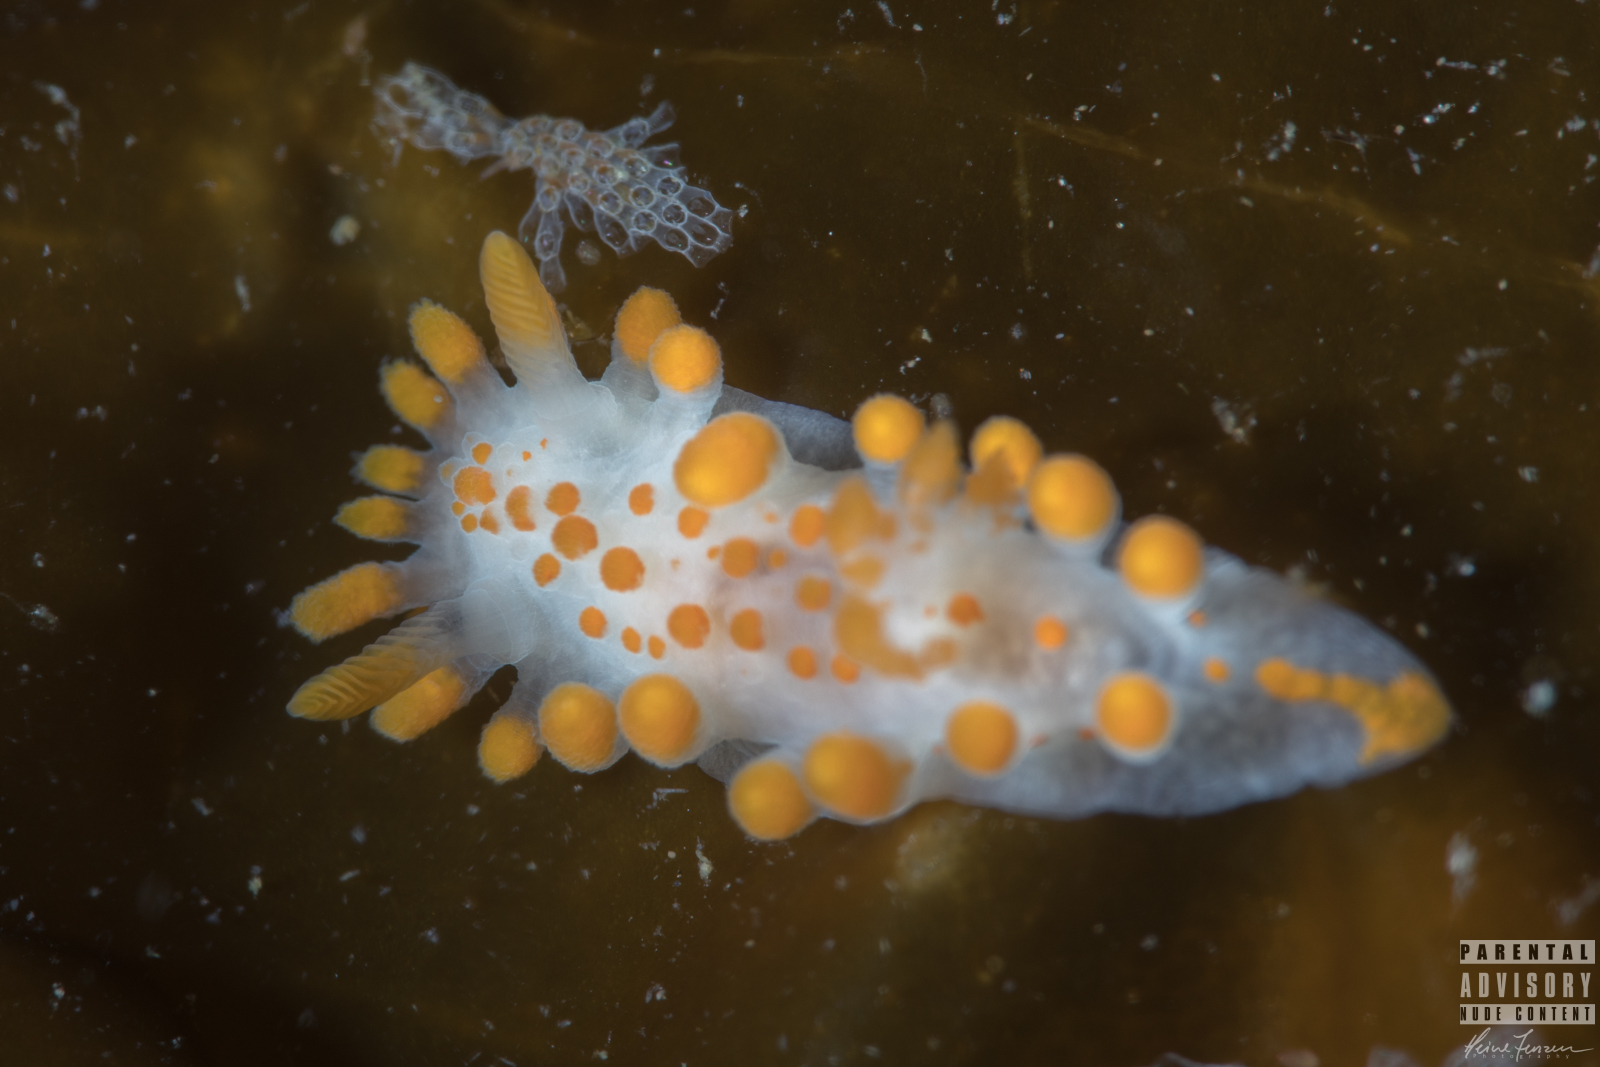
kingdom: Animalia
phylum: Mollusca
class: Gastropoda
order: Nudibranchia
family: Polyceridae
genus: Limacia
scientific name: Limacia clavigera
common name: Orange-clubbed sea slug
